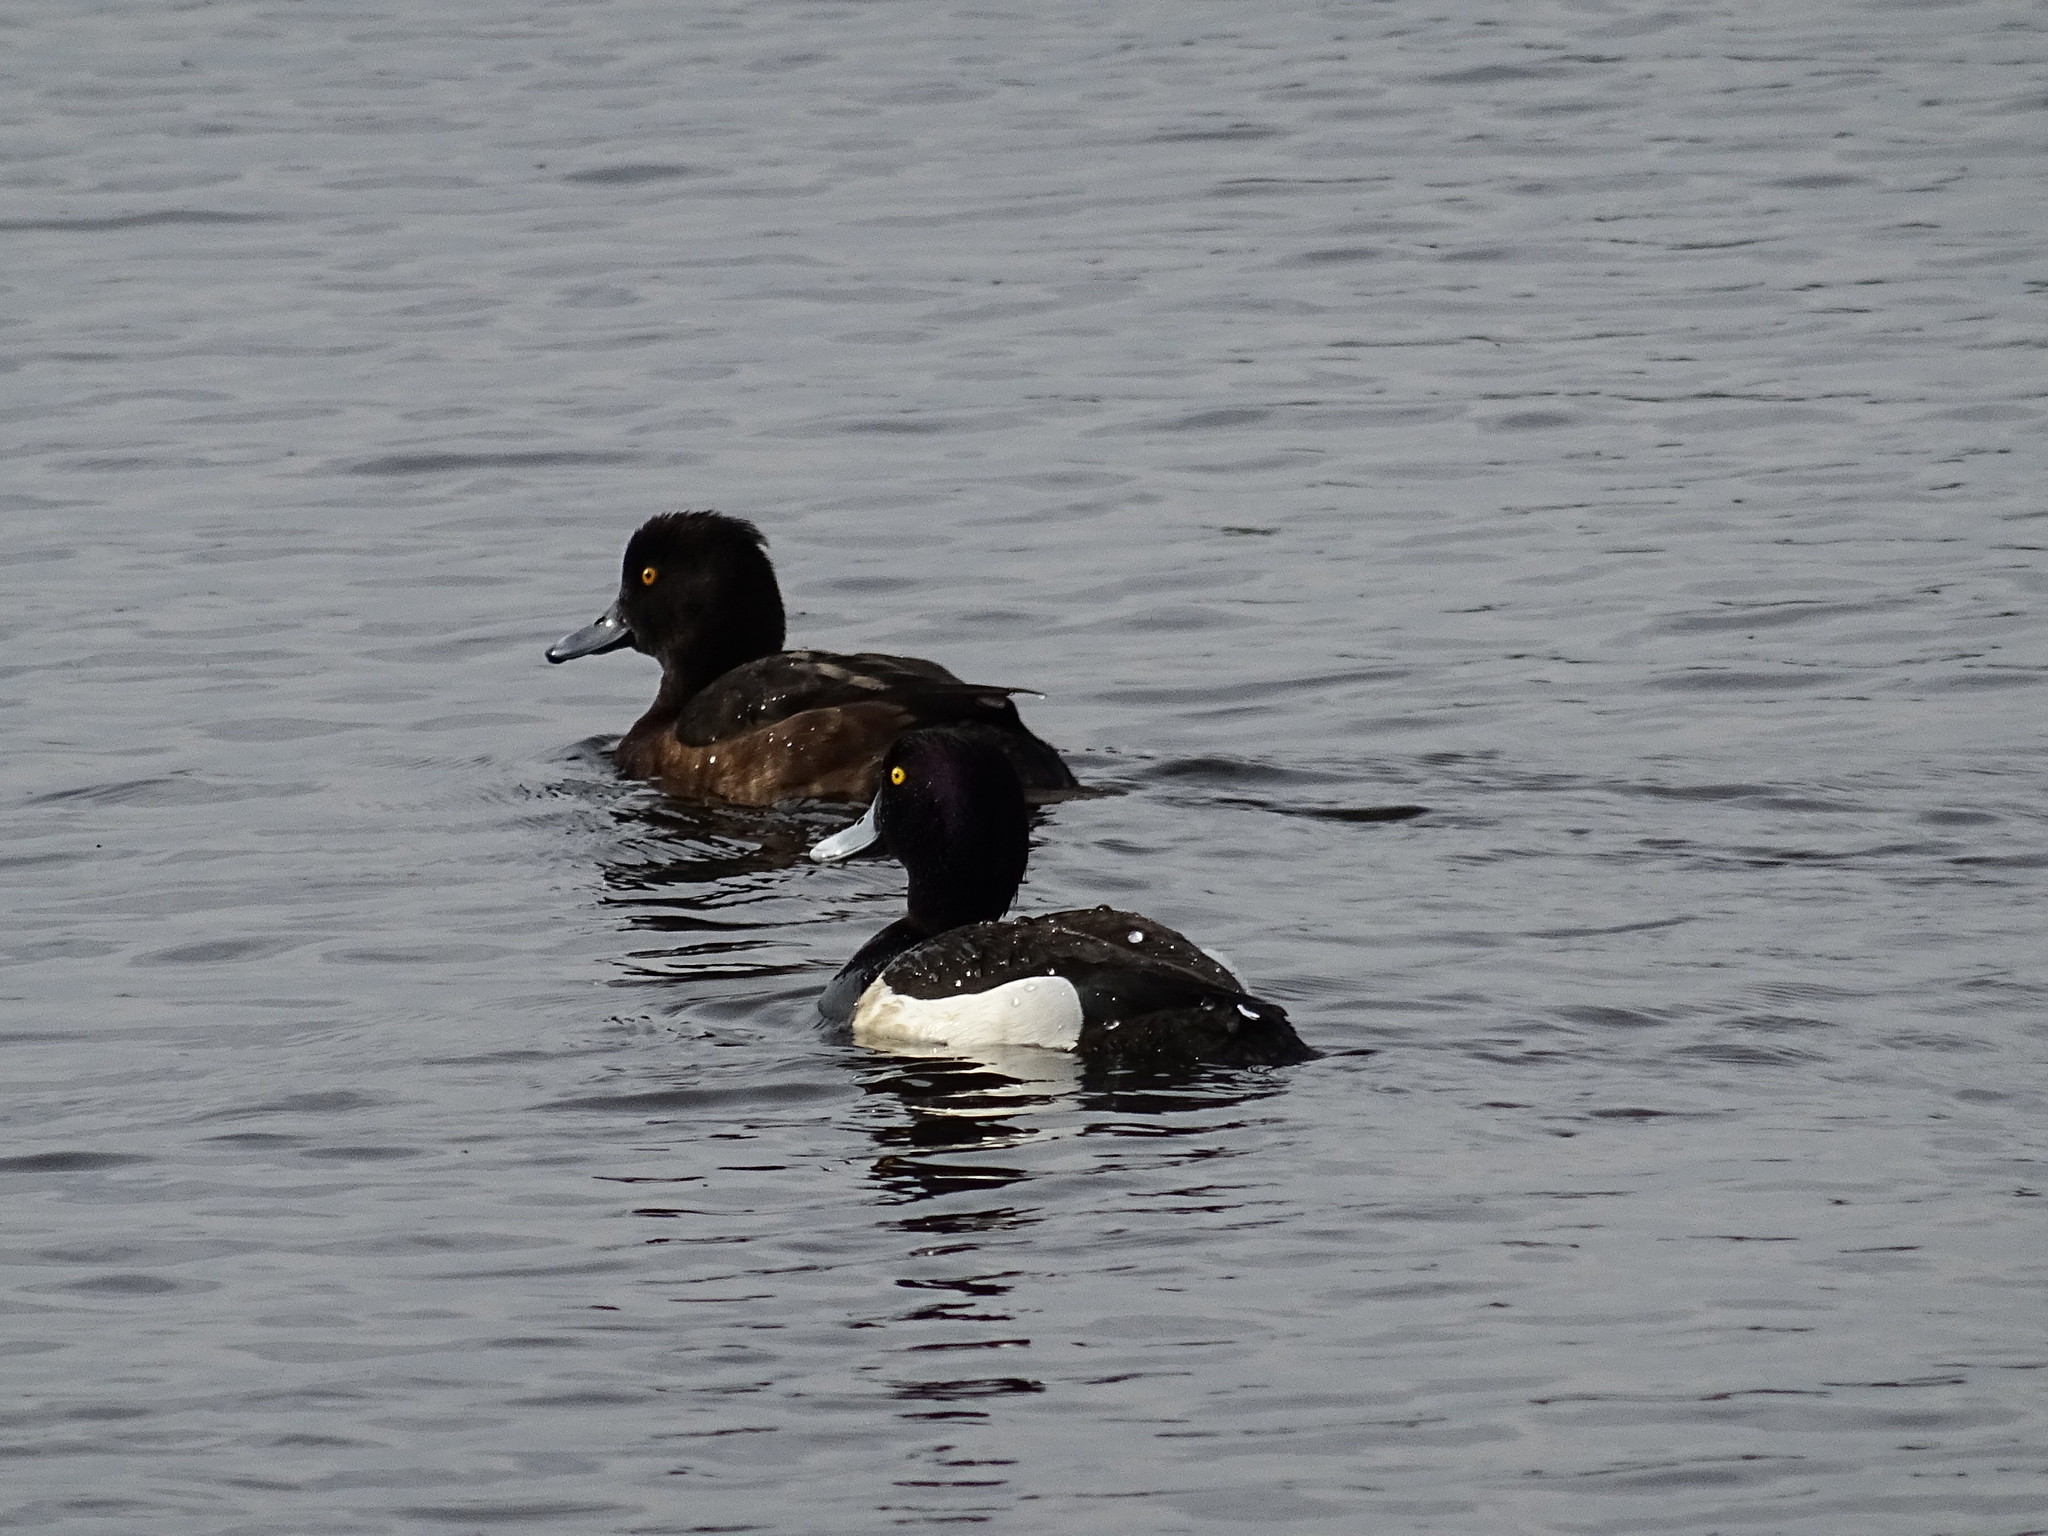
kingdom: Animalia
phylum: Chordata
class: Aves
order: Anseriformes
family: Anatidae
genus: Aythya
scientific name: Aythya fuligula
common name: Tufted duck
